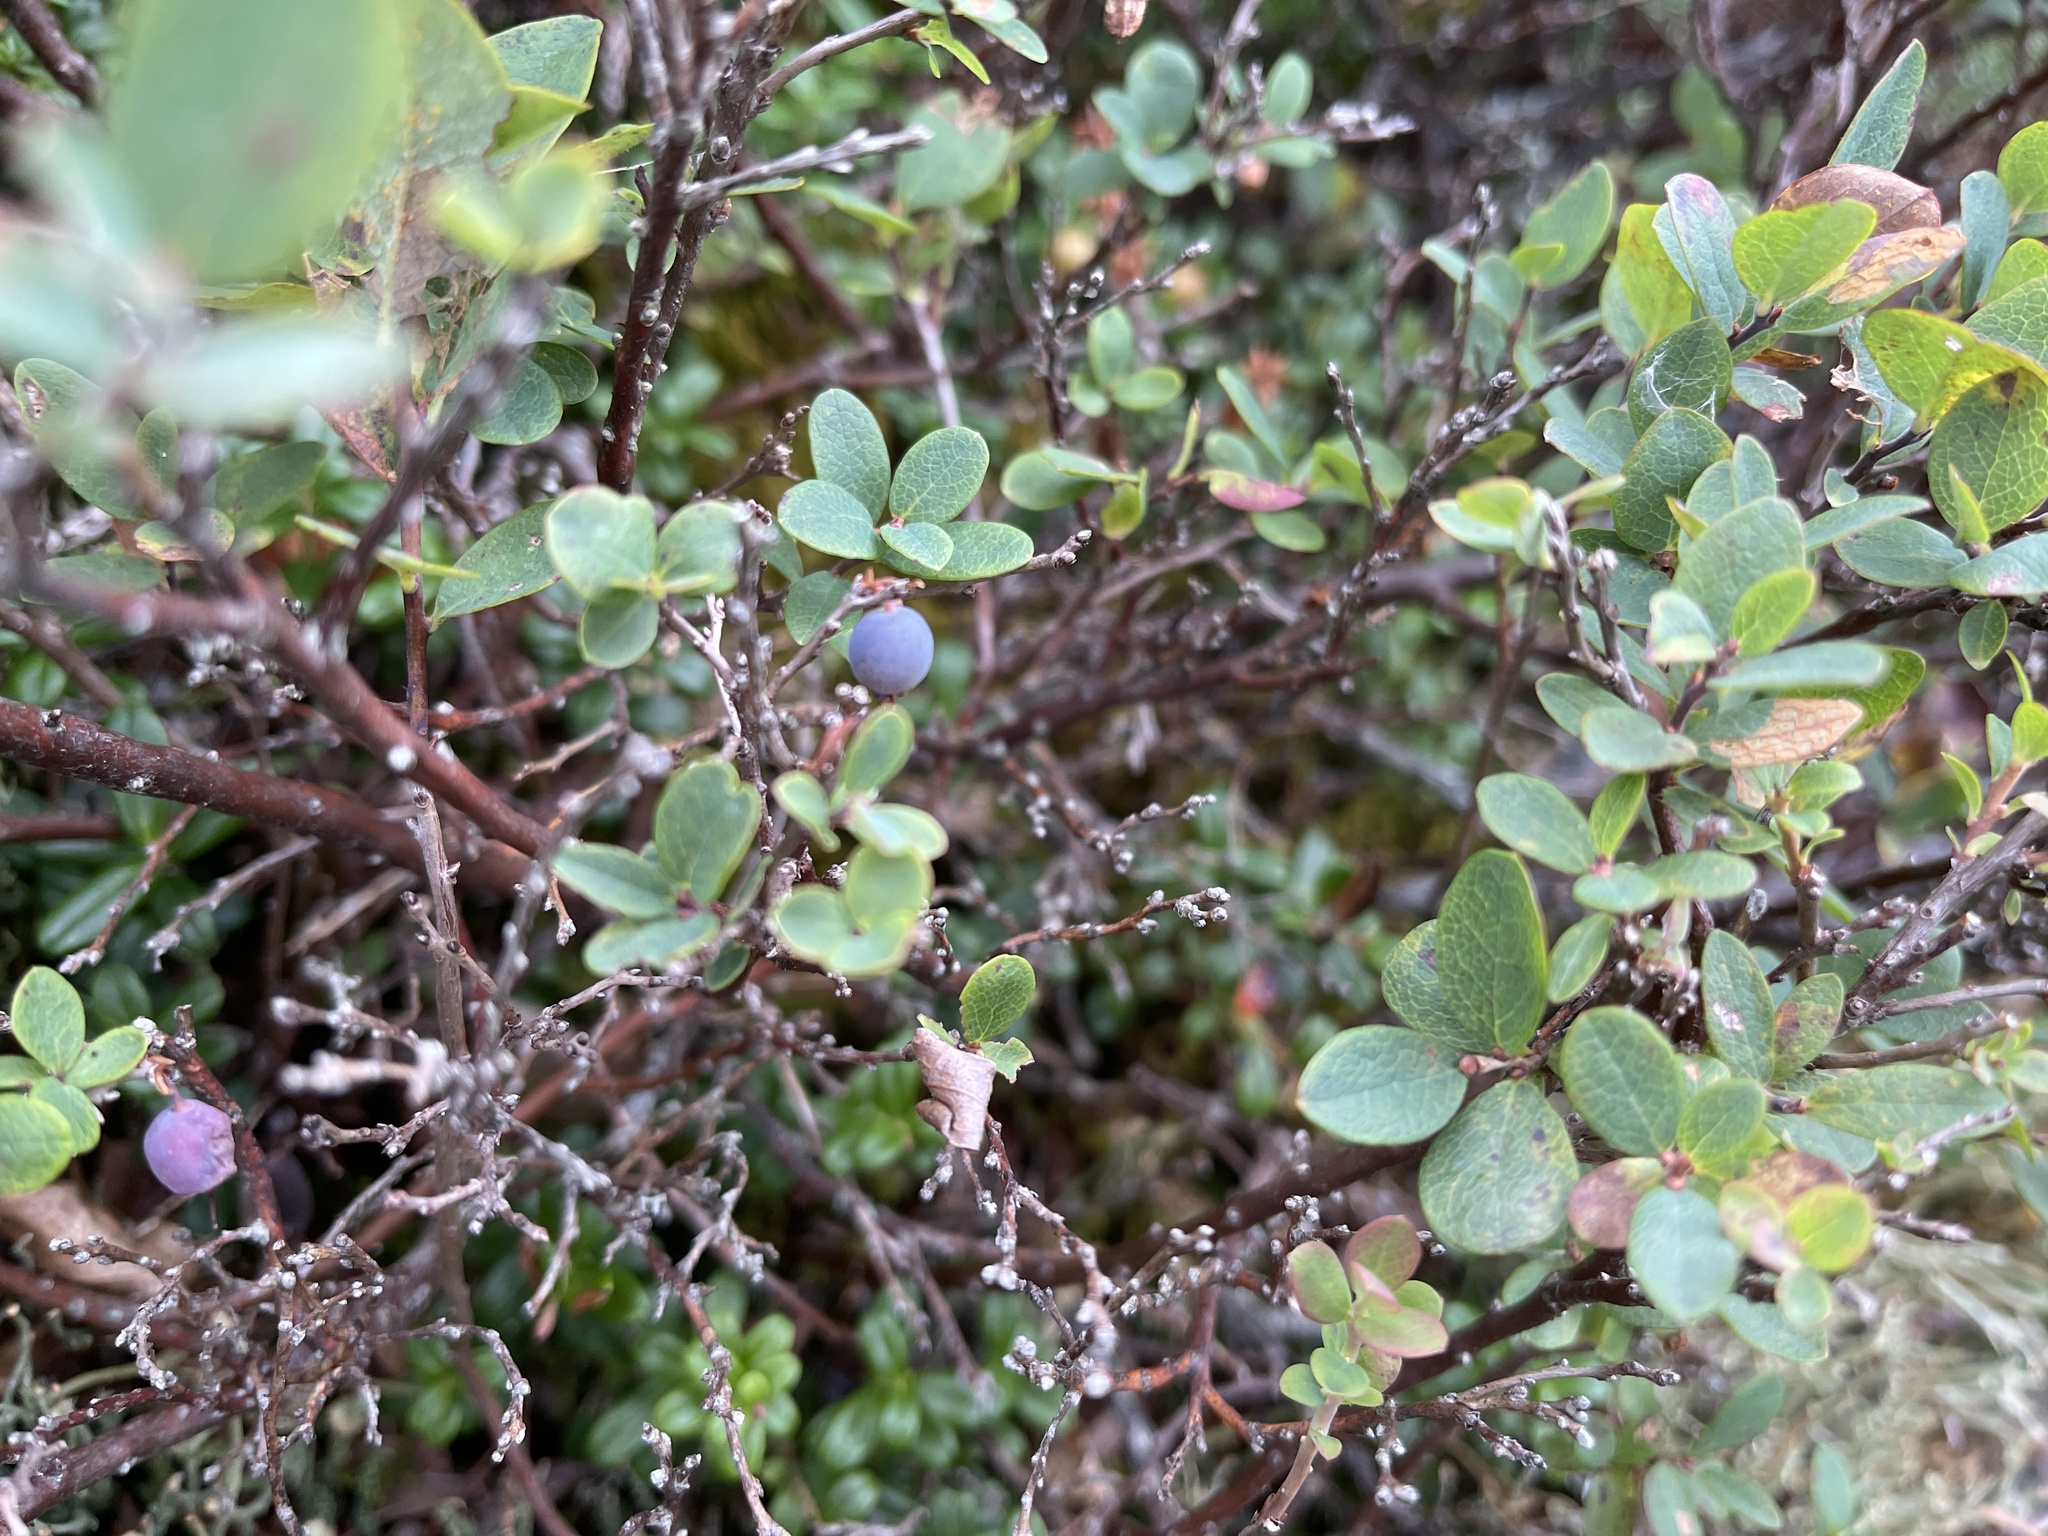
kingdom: Plantae
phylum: Tracheophyta
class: Magnoliopsida
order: Ericales
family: Ericaceae
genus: Vaccinium
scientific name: Vaccinium uliginosum
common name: Bog bilberry
